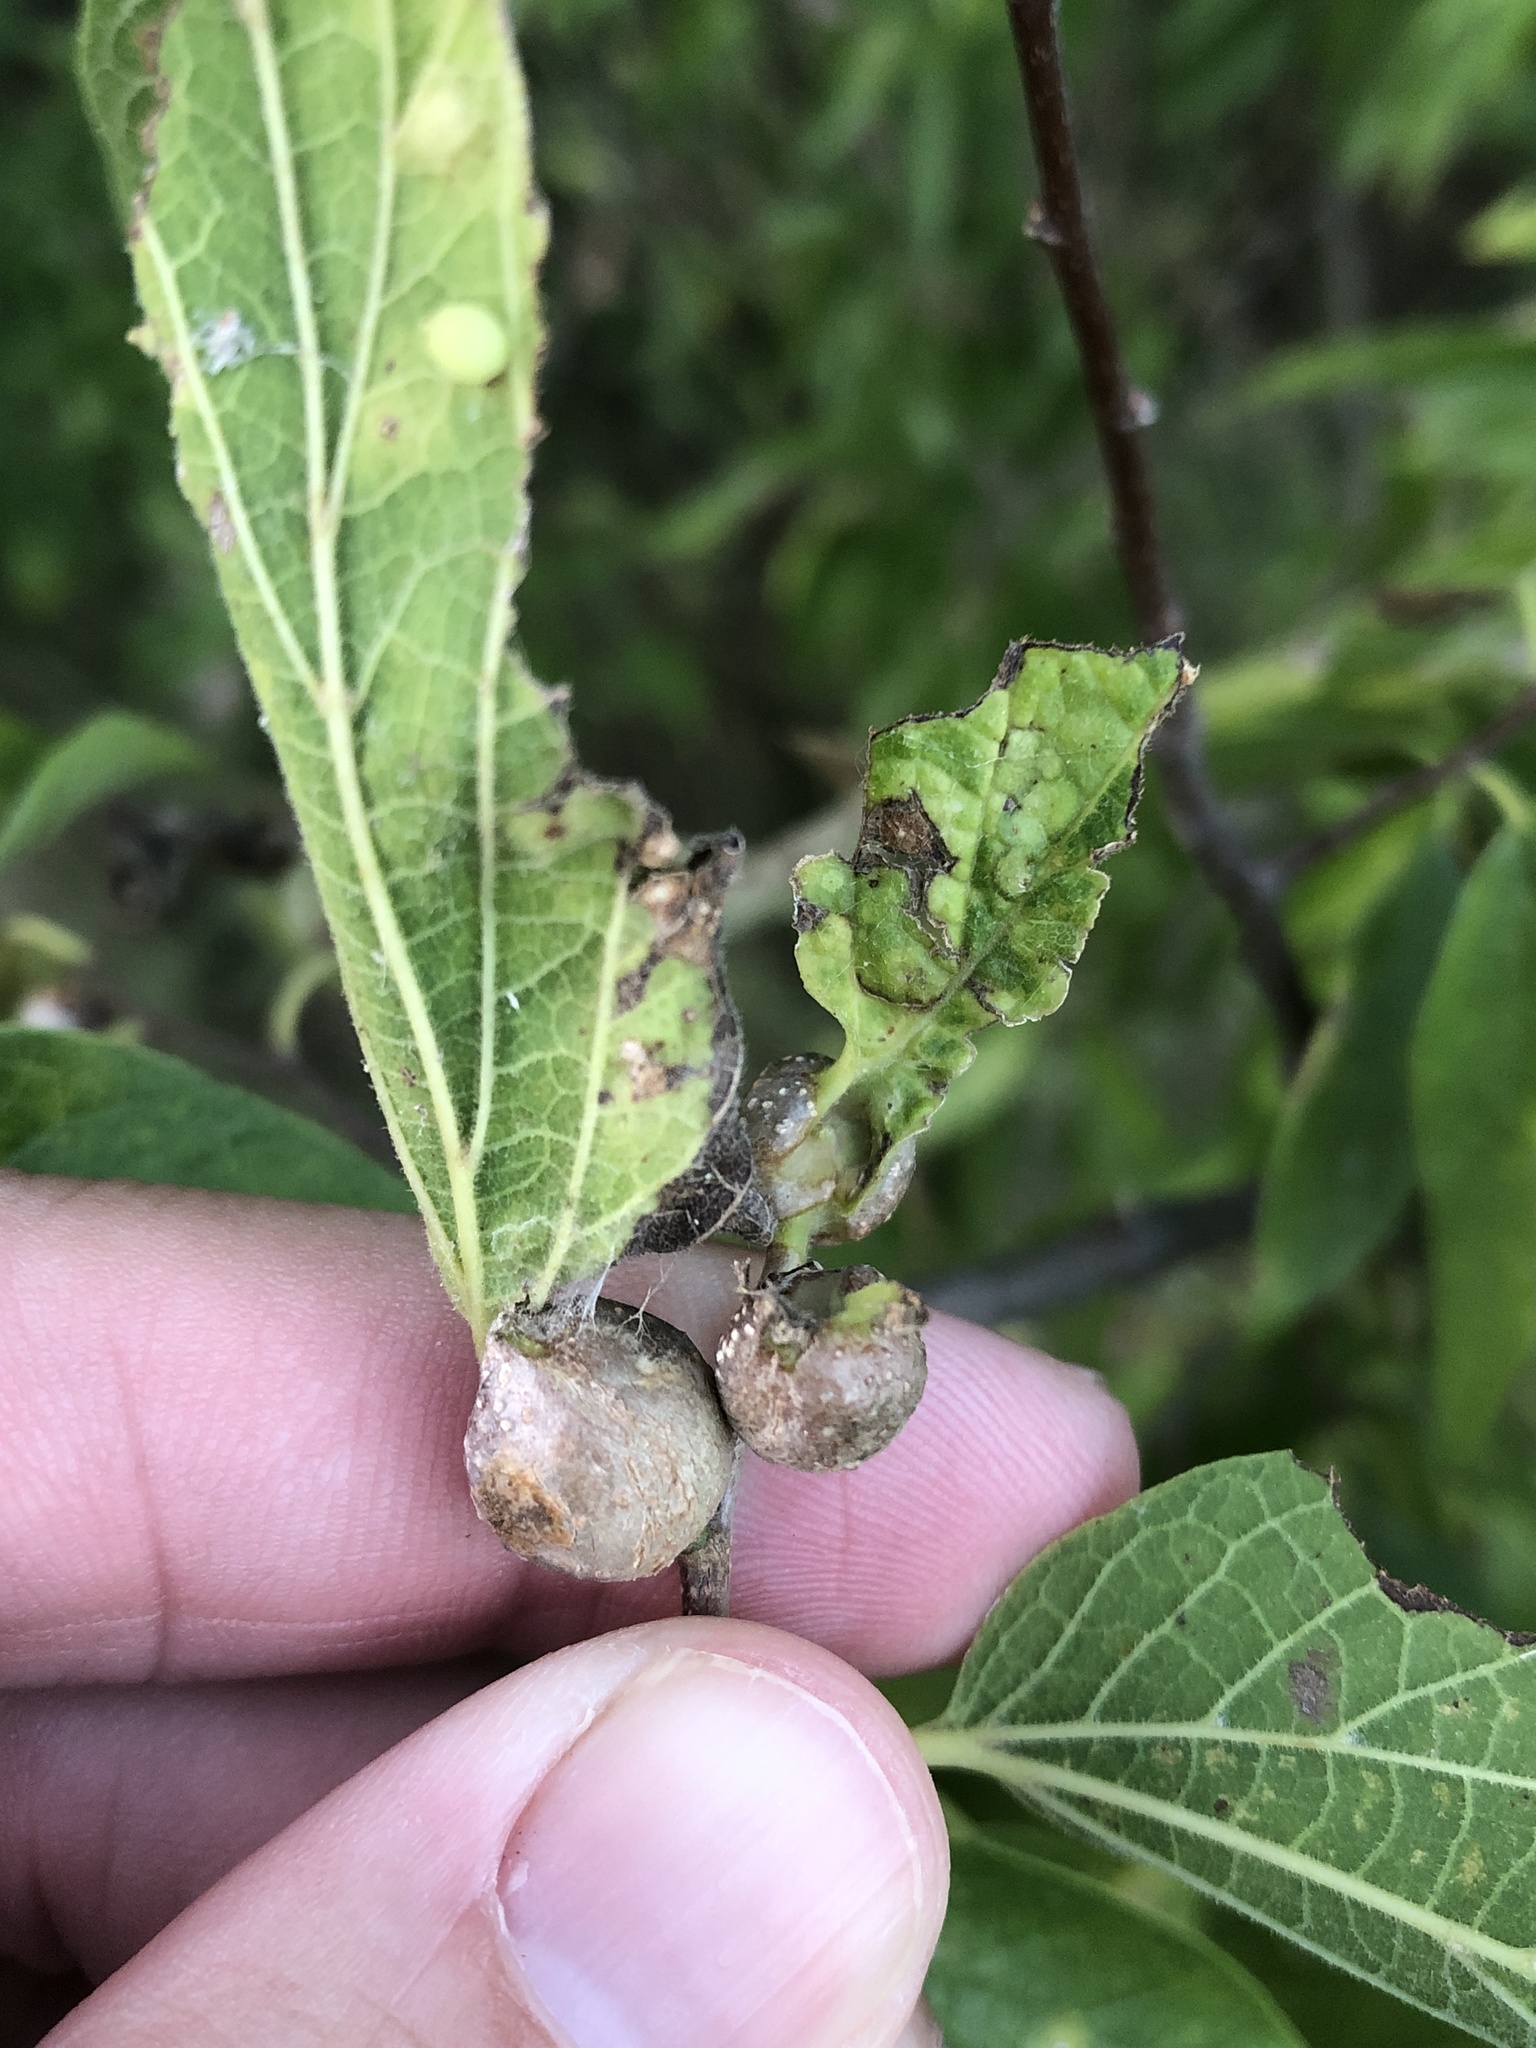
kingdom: Animalia
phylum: Arthropoda
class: Insecta
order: Hemiptera
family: Aphalaridae
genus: Pachypsylla
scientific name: Pachypsylla venusta
